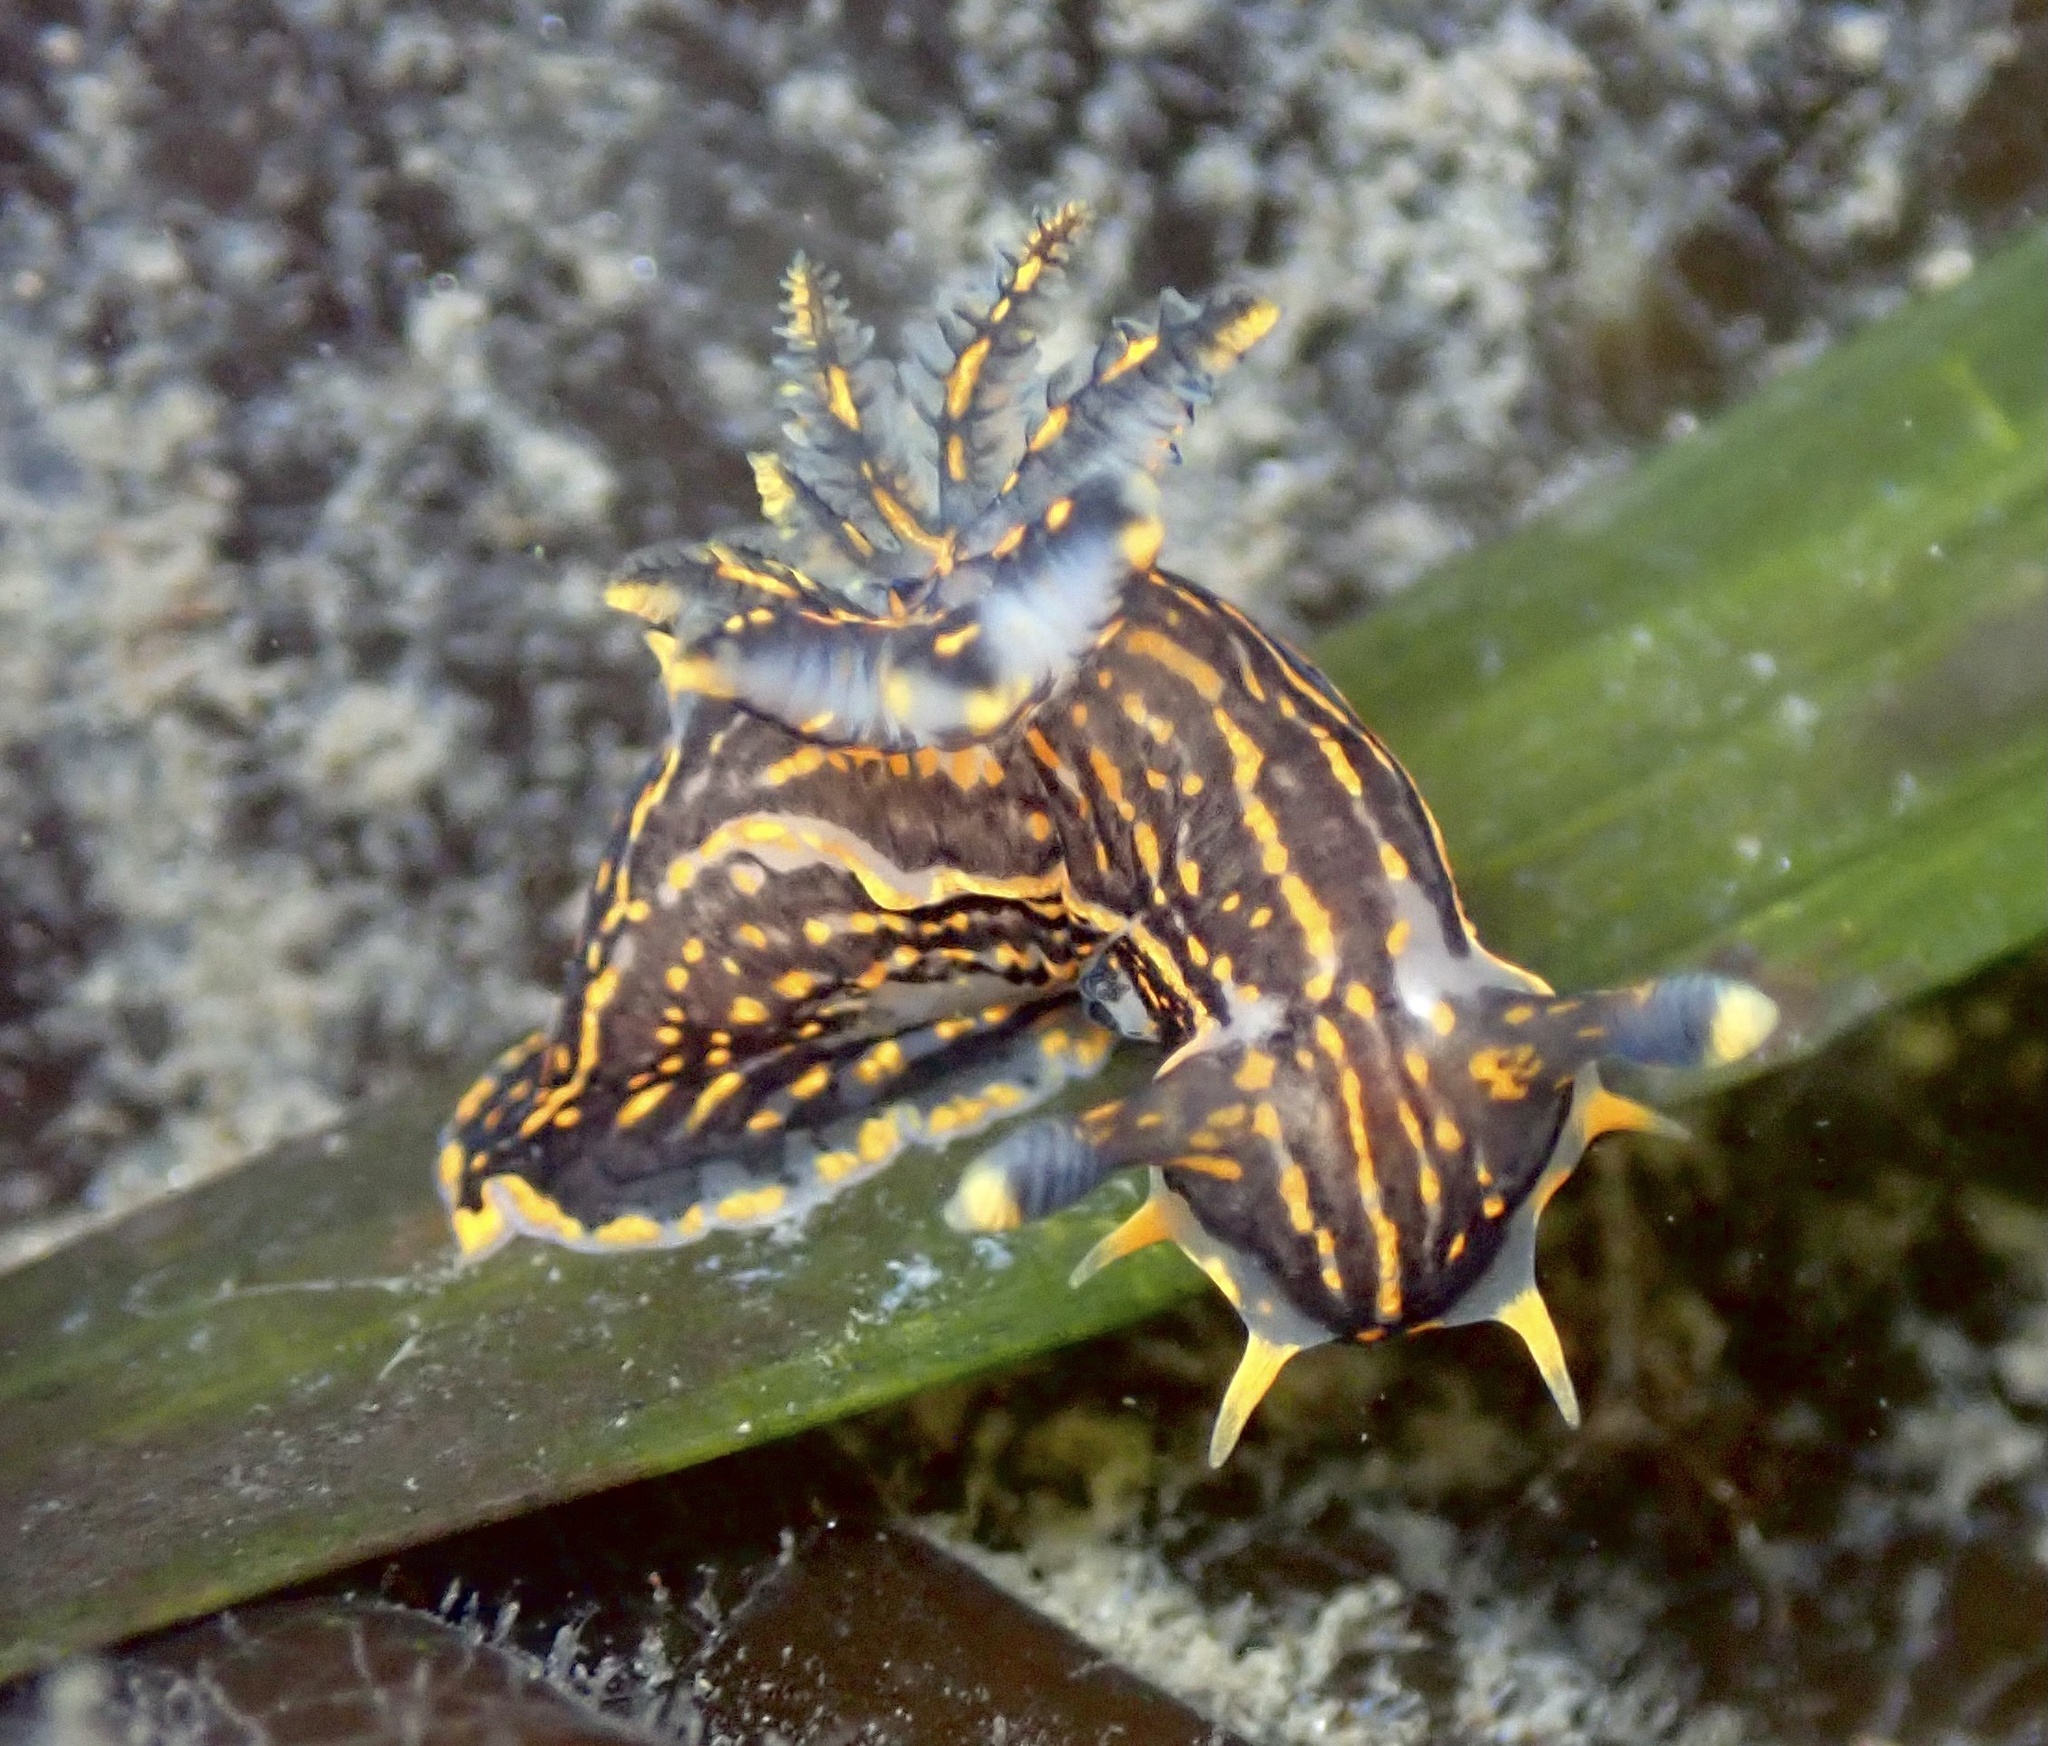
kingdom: Animalia
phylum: Mollusca
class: Gastropoda
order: Nudibranchia
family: Polyceridae
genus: Polycera
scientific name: Polycera atra
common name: Orange-spike polycera
